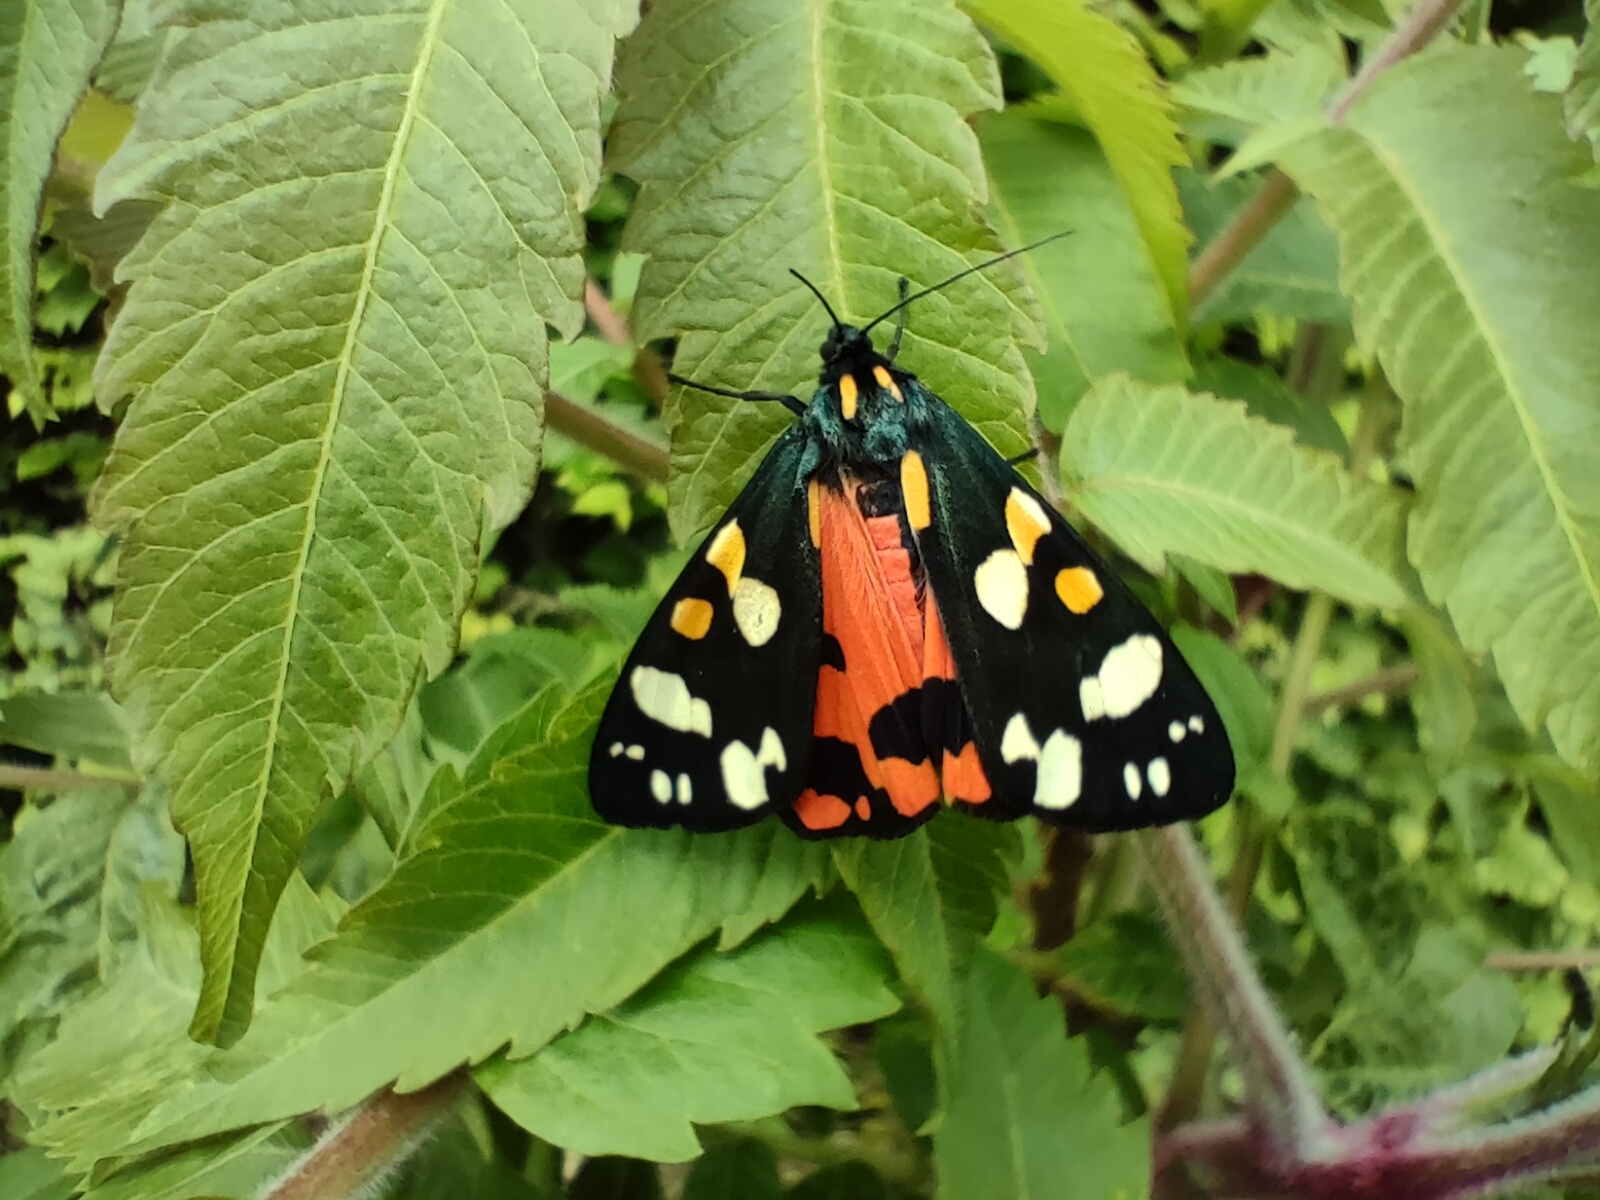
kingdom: Animalia
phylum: Arthropoda
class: Insecta
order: Lepidoptera
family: Erebidae
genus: Callimorpha
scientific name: Callimorpha dominula
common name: Scarlet tiger
